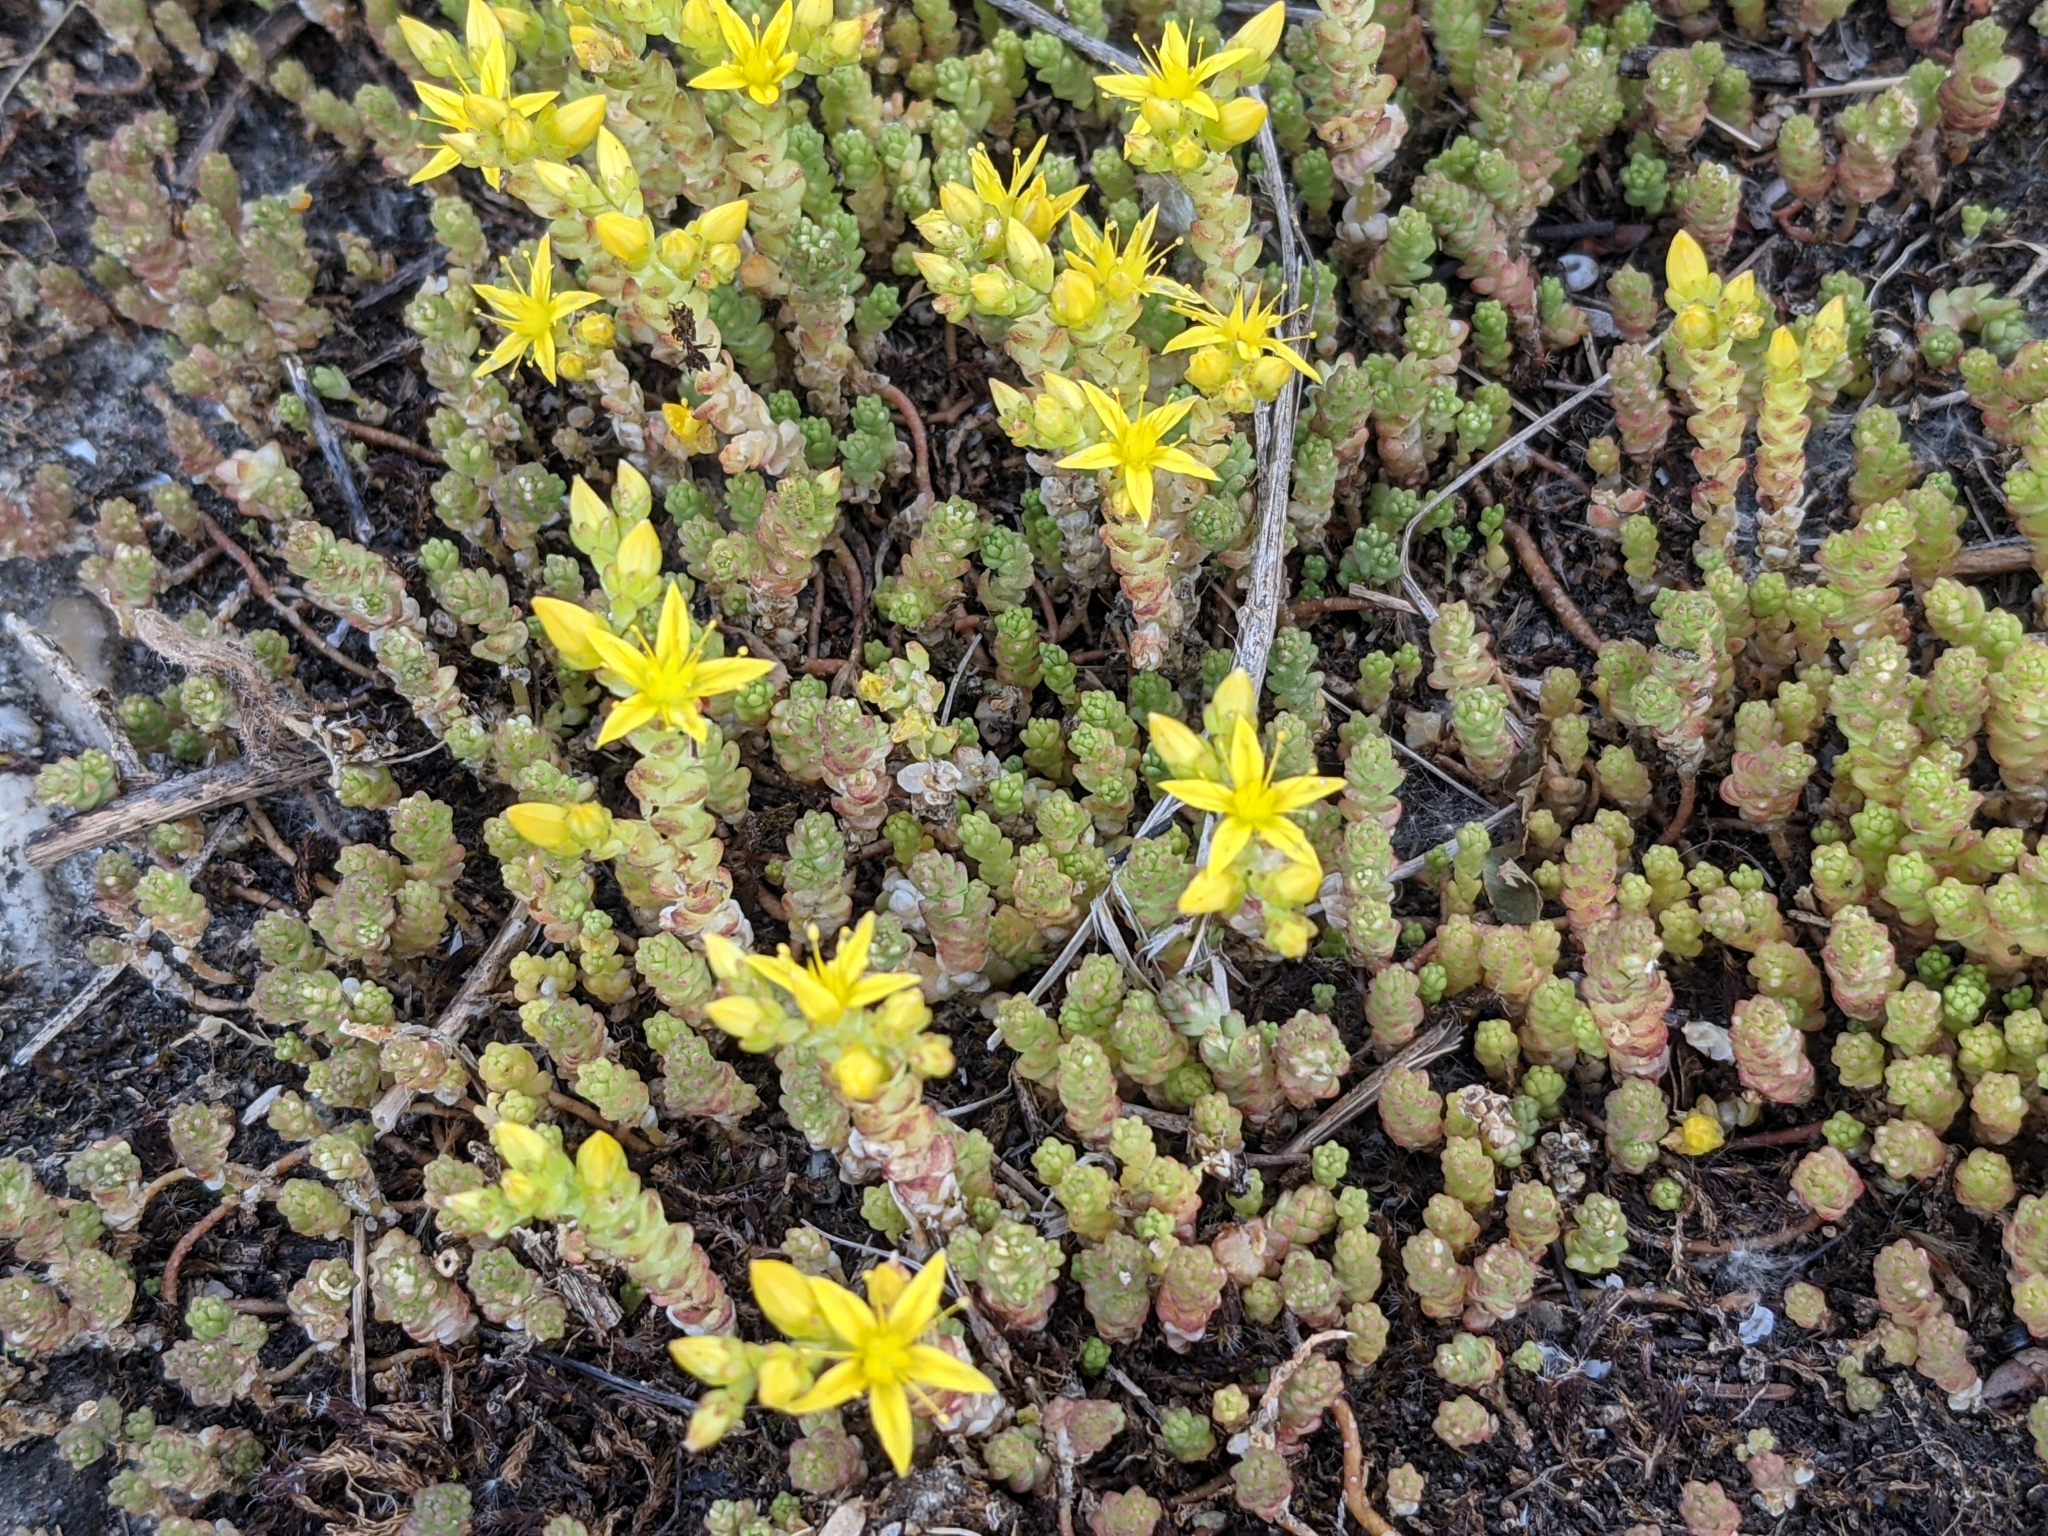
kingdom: Plantae
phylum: Tracheophyta
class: Magnoliopsida
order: Saxifragales
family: Crassulaceae
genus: Sedum
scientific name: Sedum acre
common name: Biting stonecrop
